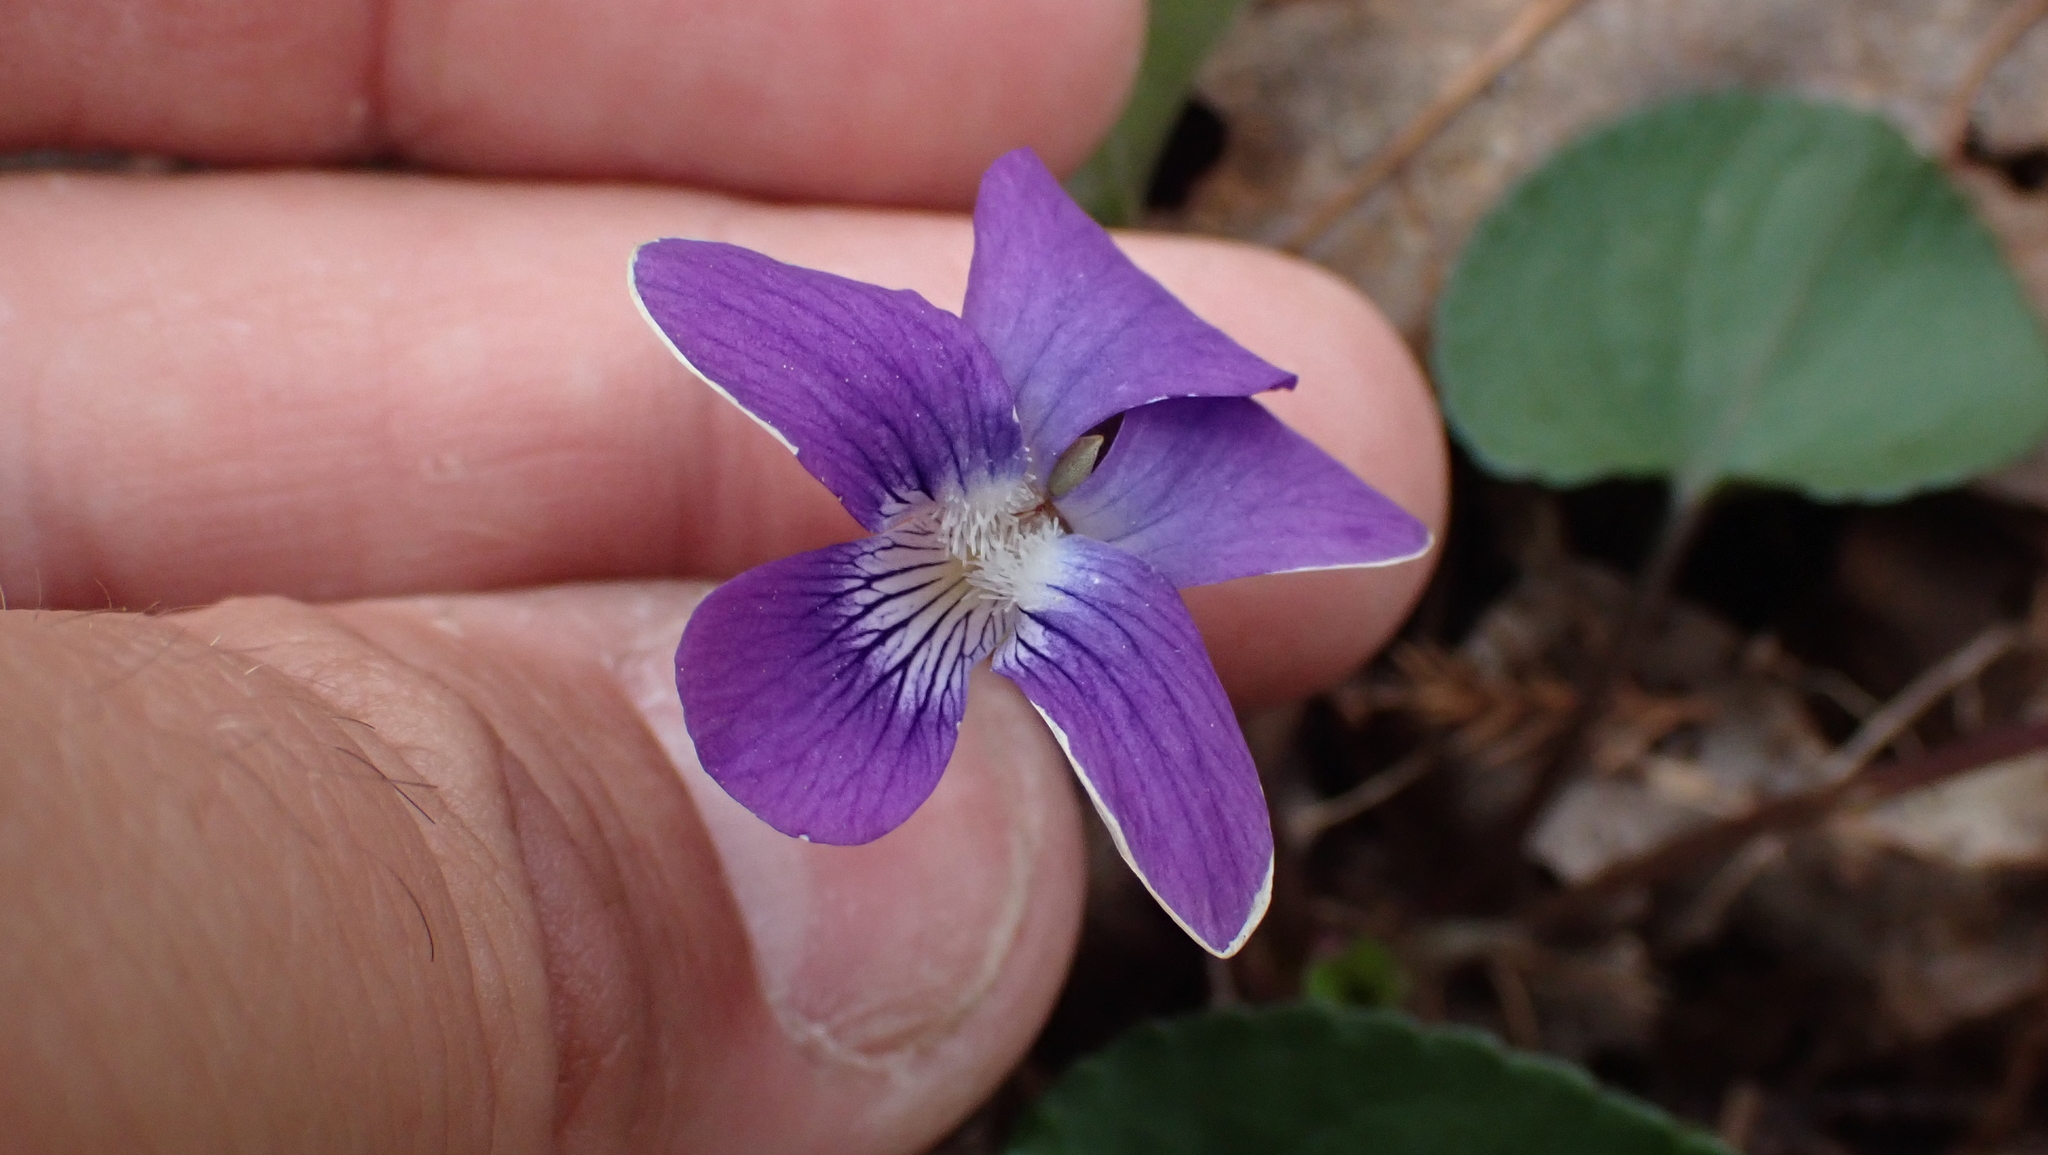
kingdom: Plantae
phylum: Tracheophyta
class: Magnoliopsida
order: Malpighiales
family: Violaceae
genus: Viola
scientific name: Viola sororia
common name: Dooryard violet
